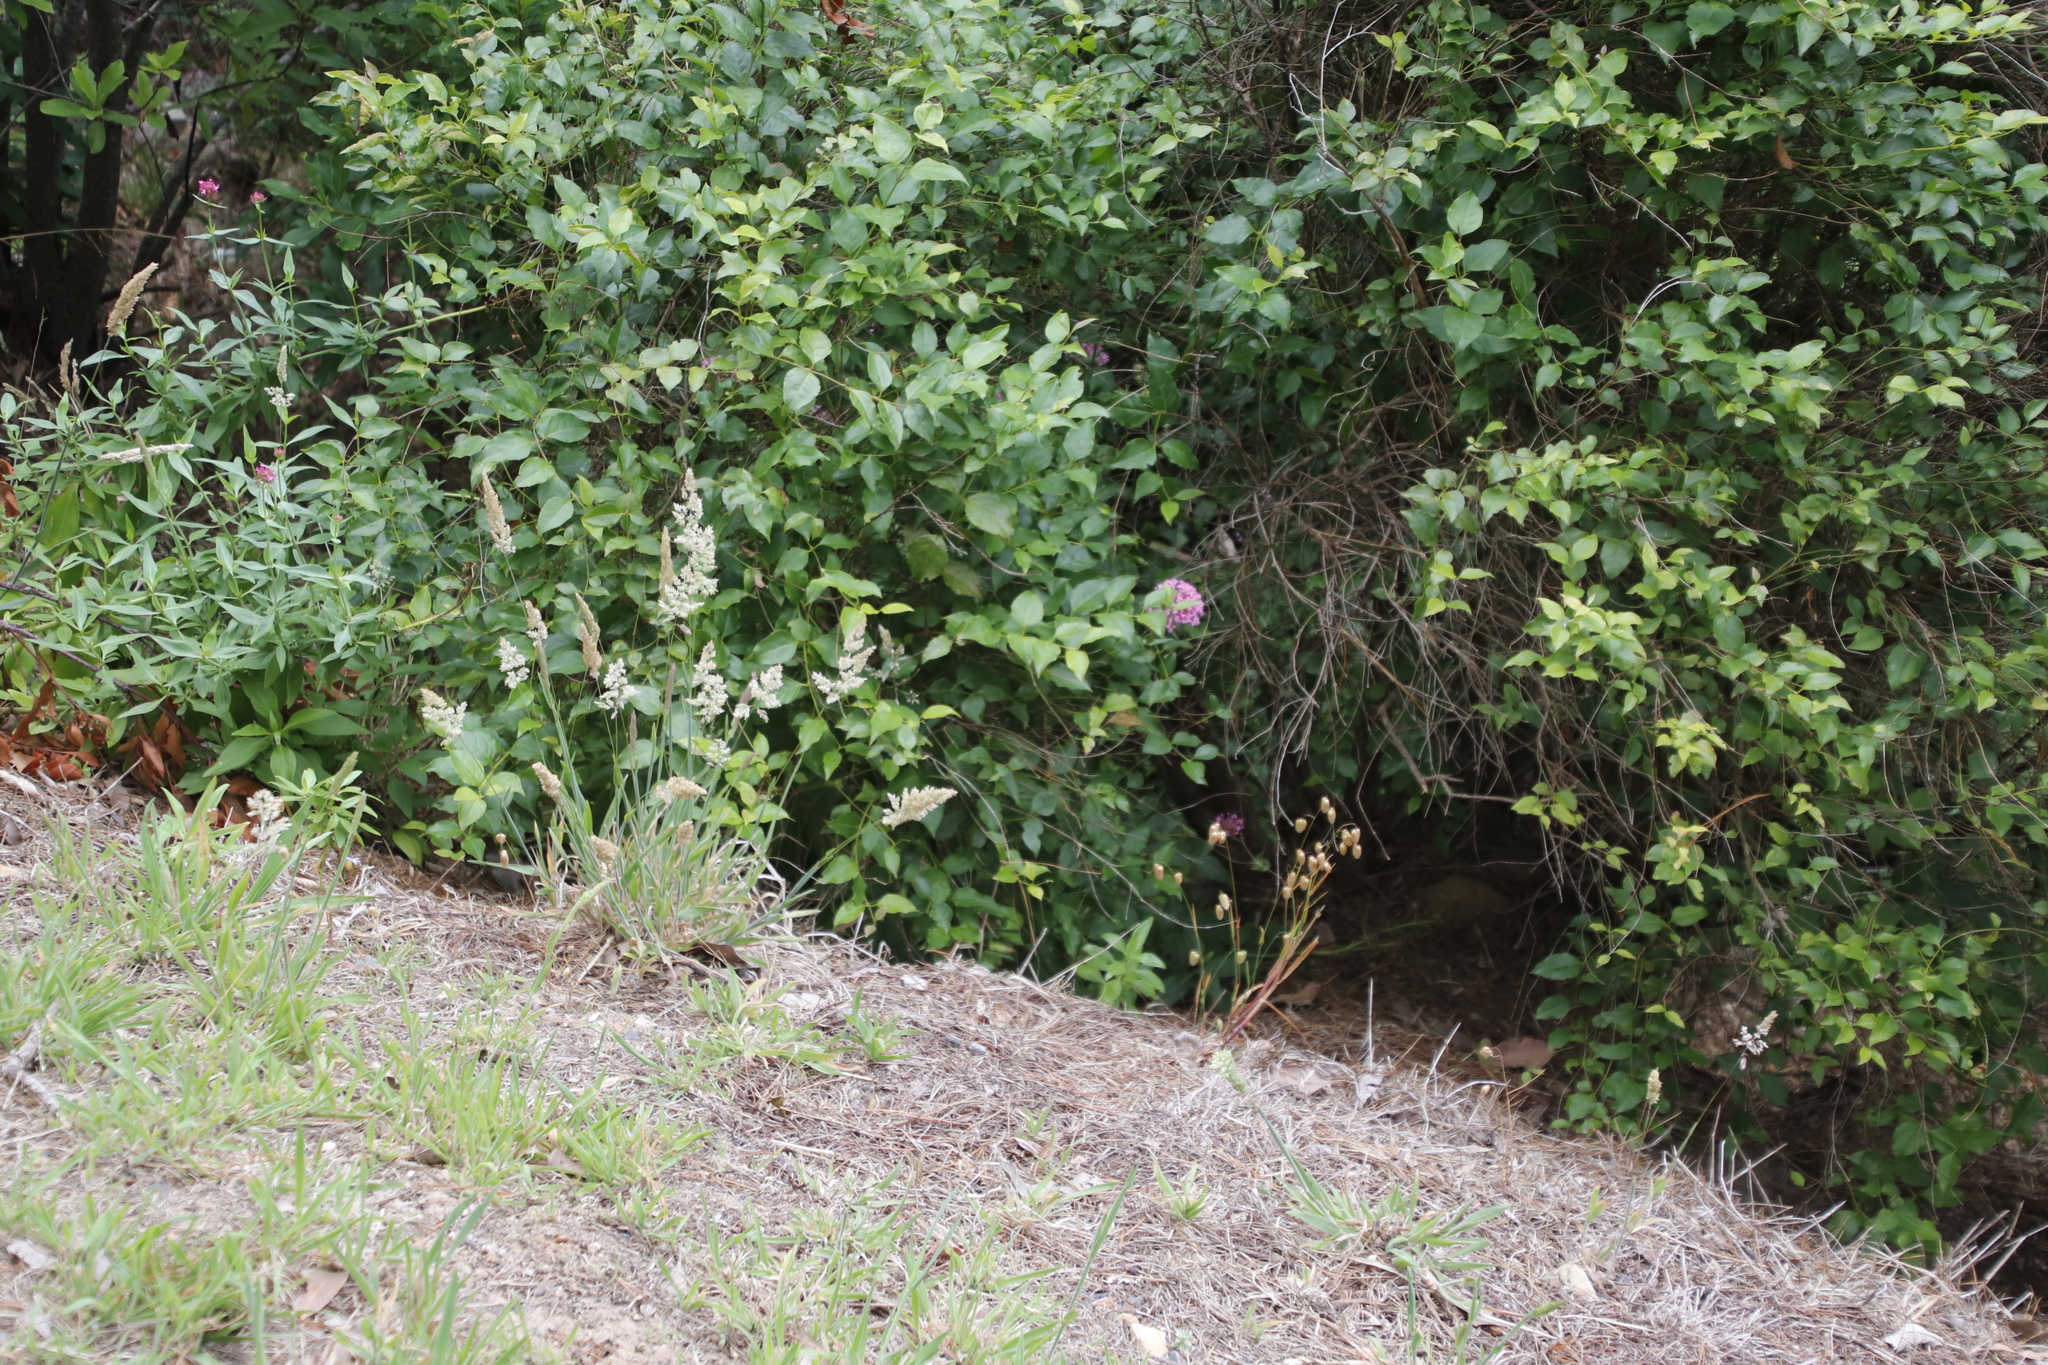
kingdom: Plantae
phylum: Tracheophyta
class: Magnoliopsida
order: Dipsacales
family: Caprifoliaceae
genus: Centranthus
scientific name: Centranthus ruber
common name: Red valerian
